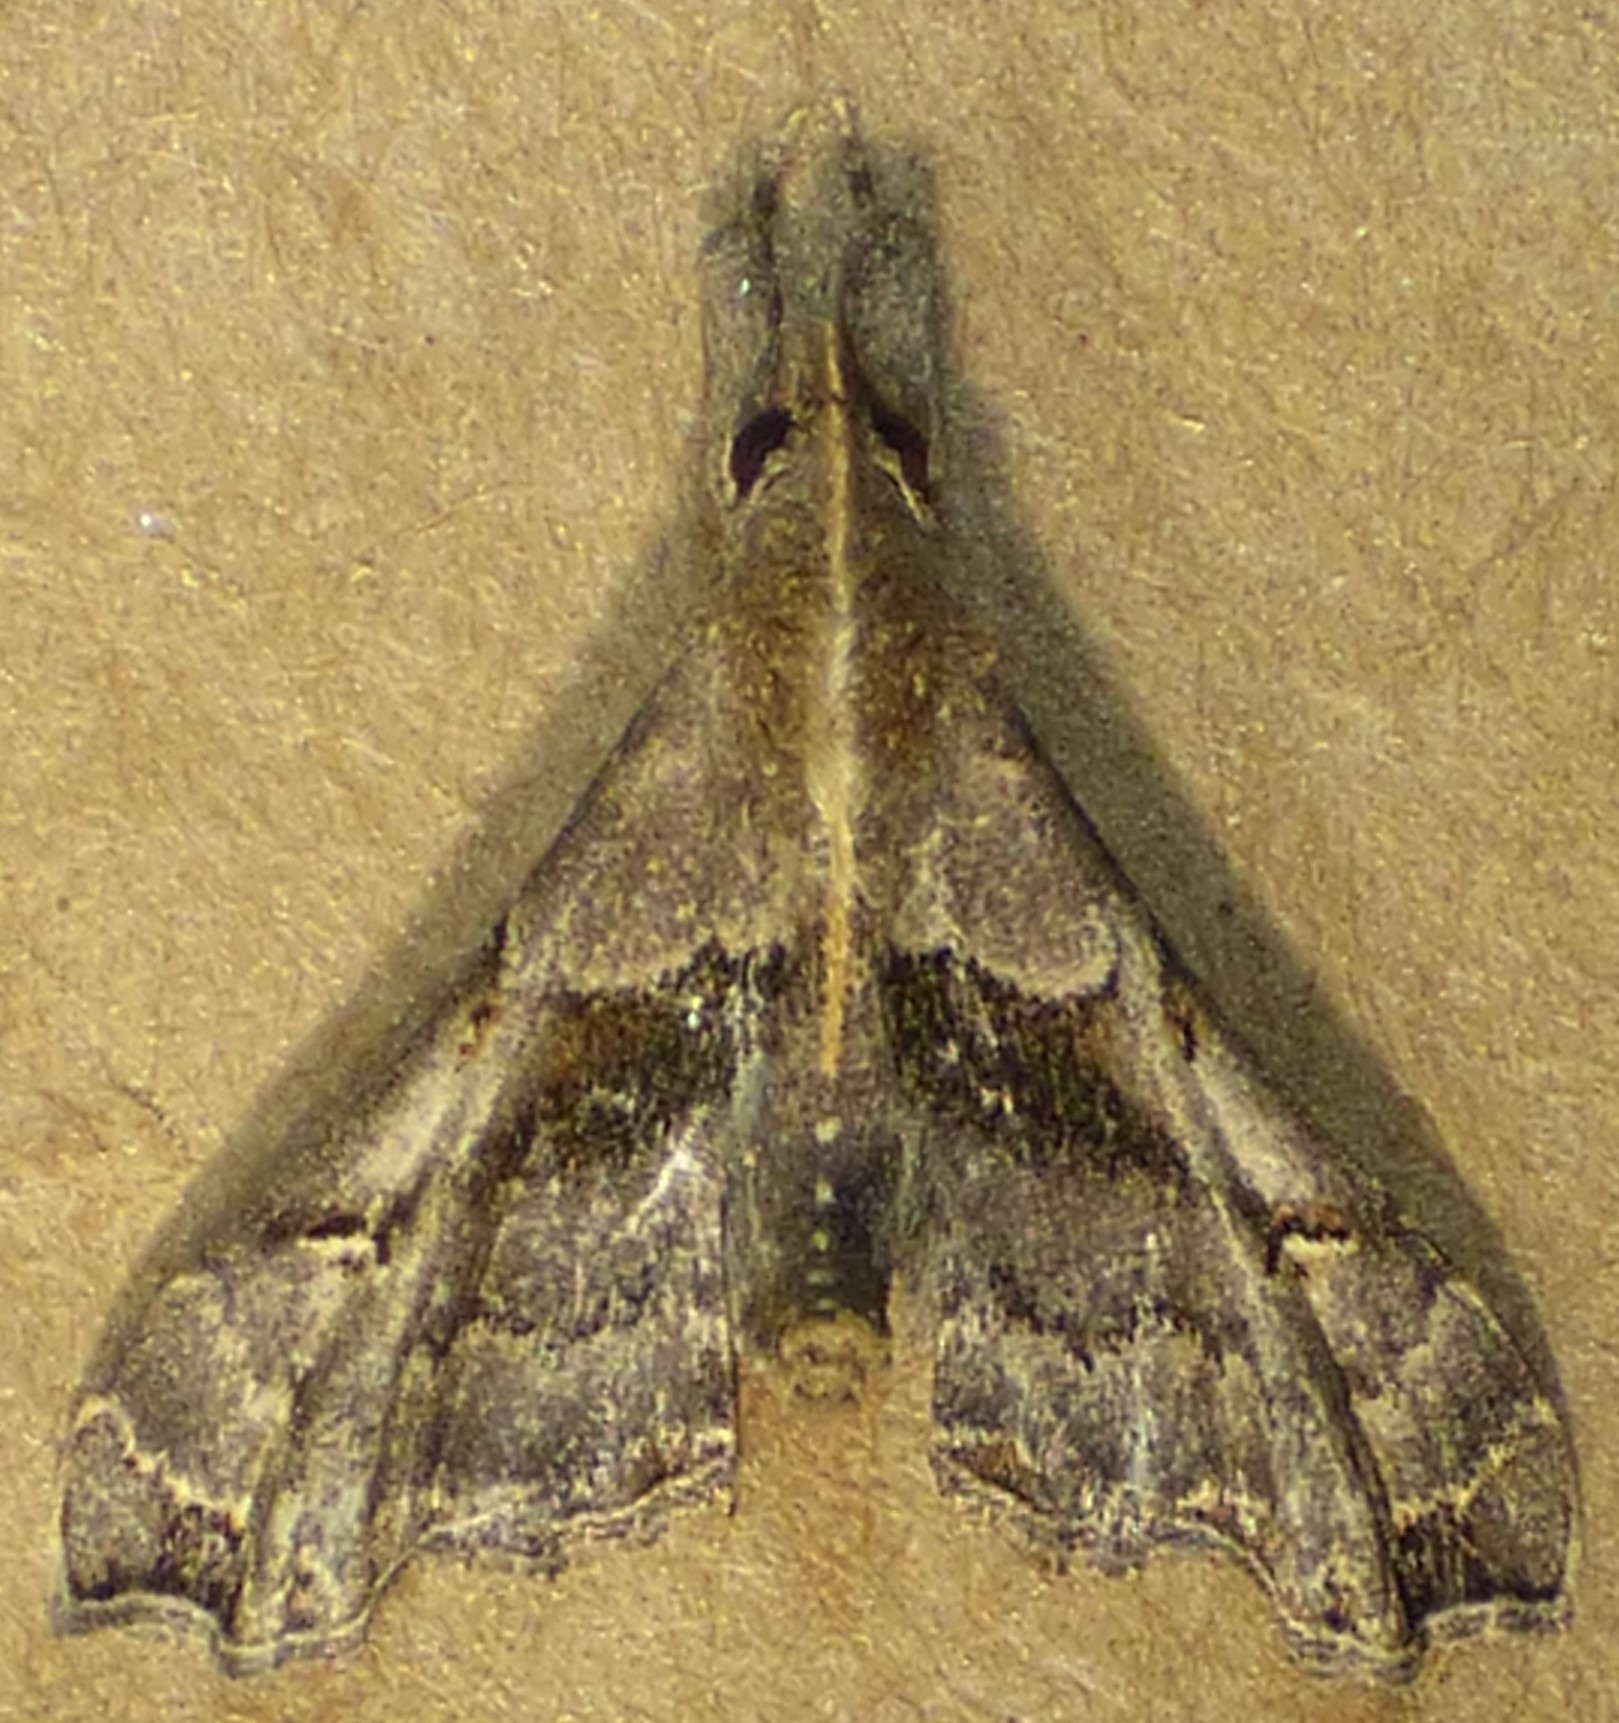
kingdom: Animalia
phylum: Arthropoda
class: Insecta
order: Lepidoptera
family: Erebidae
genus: Palthis
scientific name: Palthis asopialis
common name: Faint-spotted palthis moth
